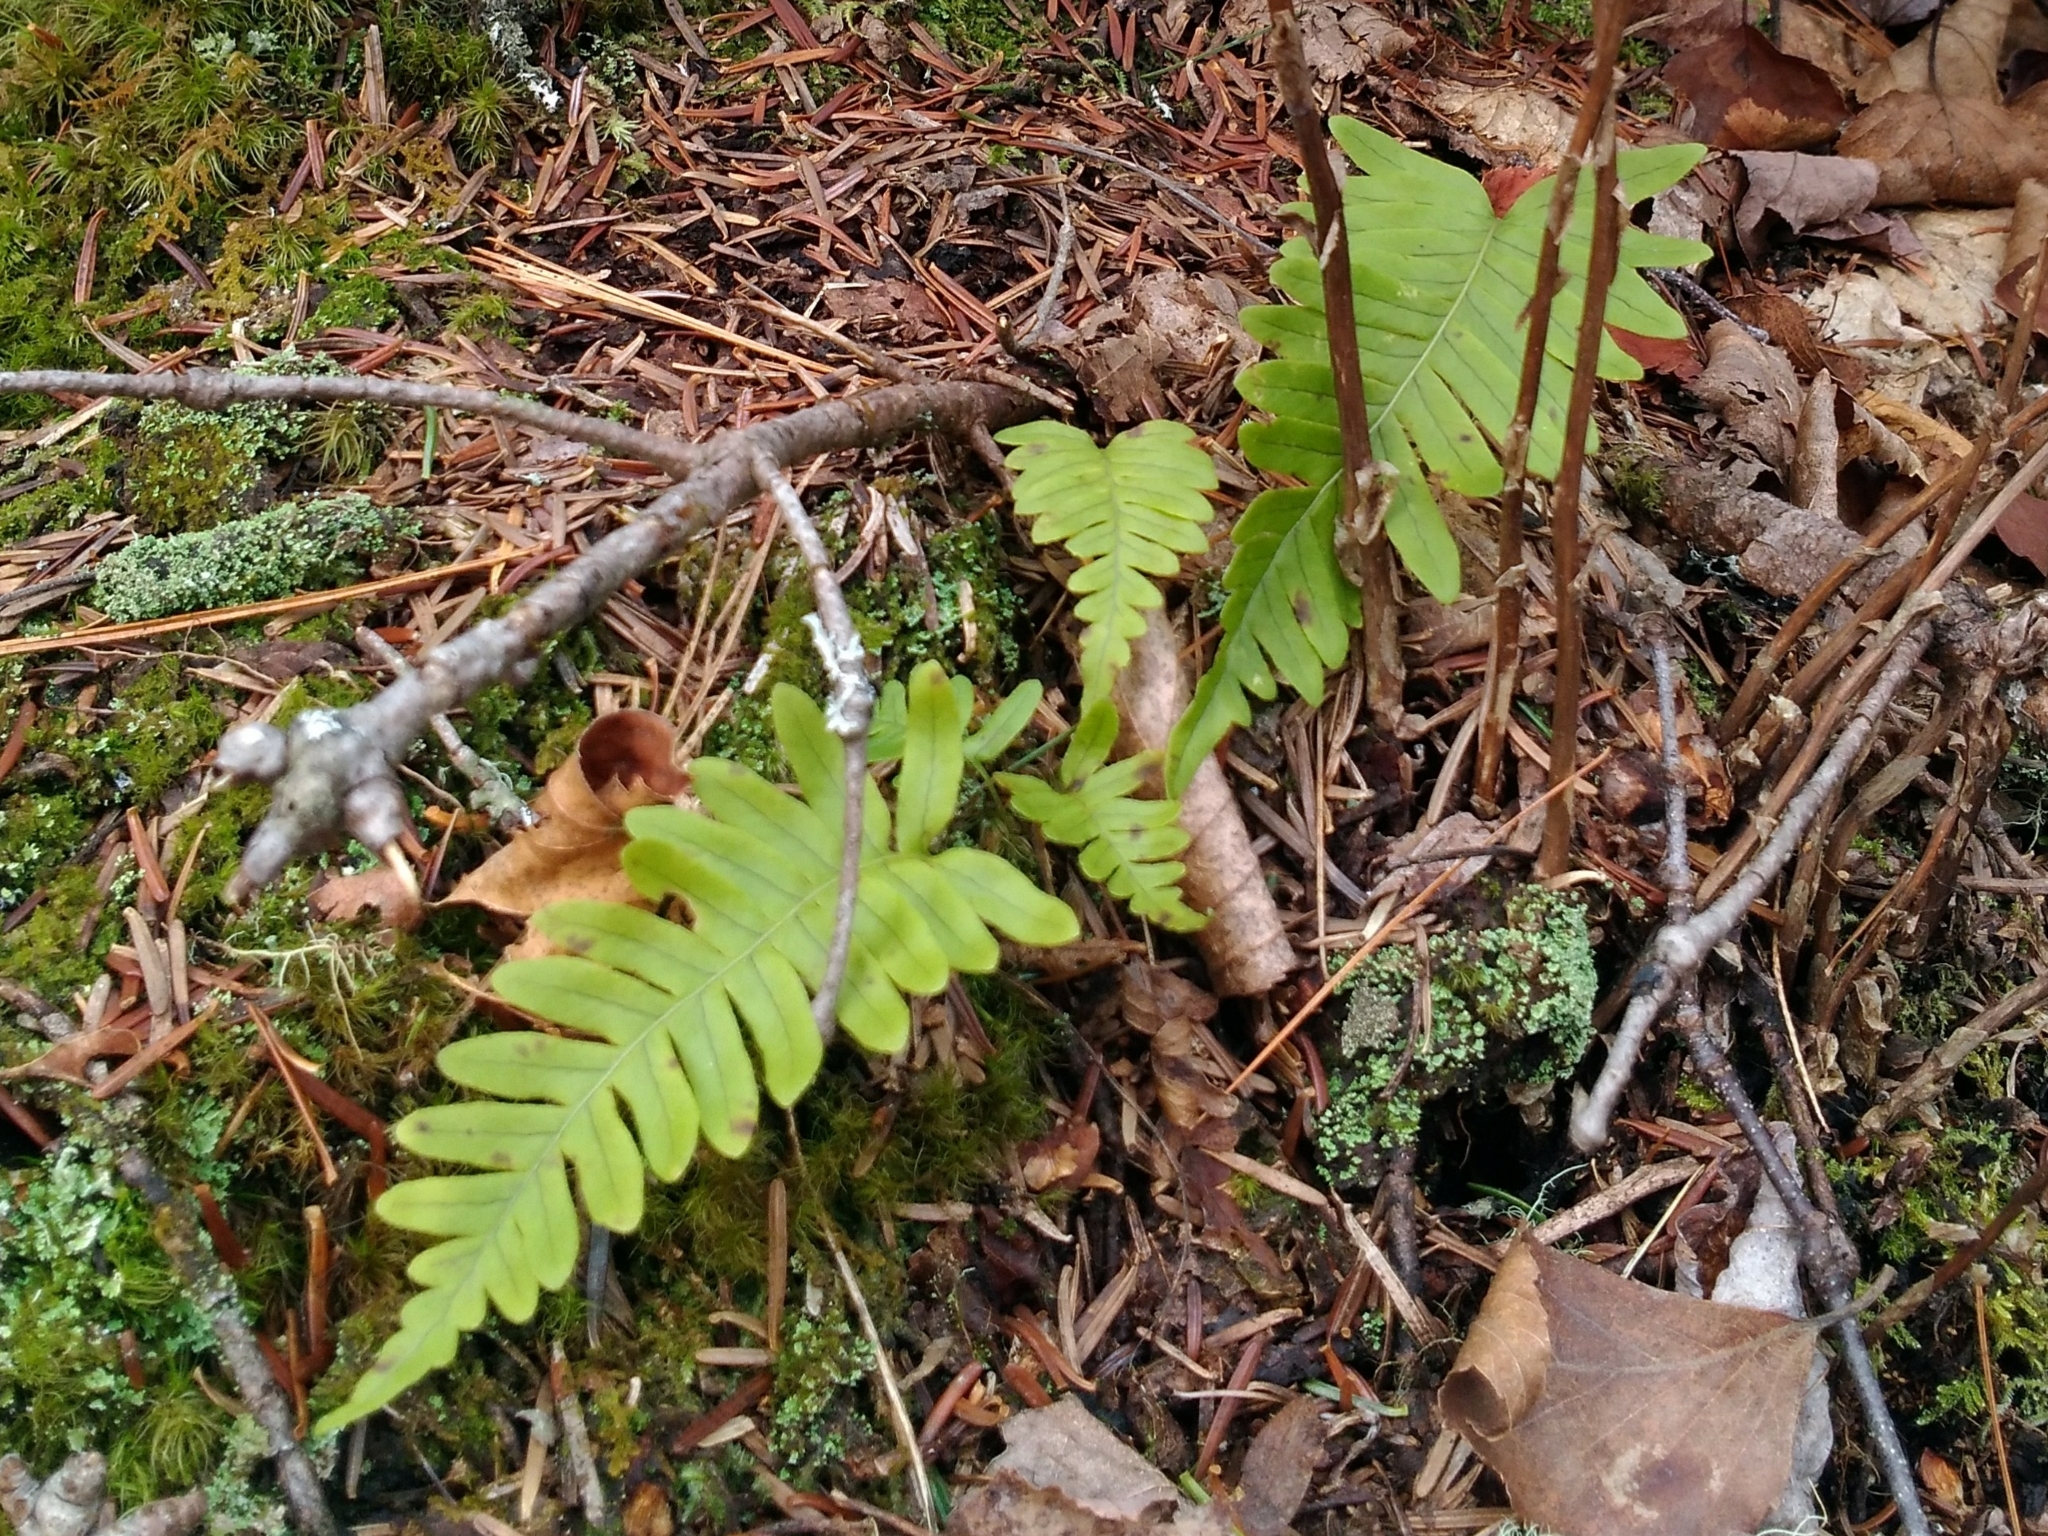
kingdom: Plantae
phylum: Tracheophyta
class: Polypodiopsida
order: Polypodiales
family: Polypodiaceae
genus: Polypodium
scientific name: Polypodium virginianum
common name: American wall fern
